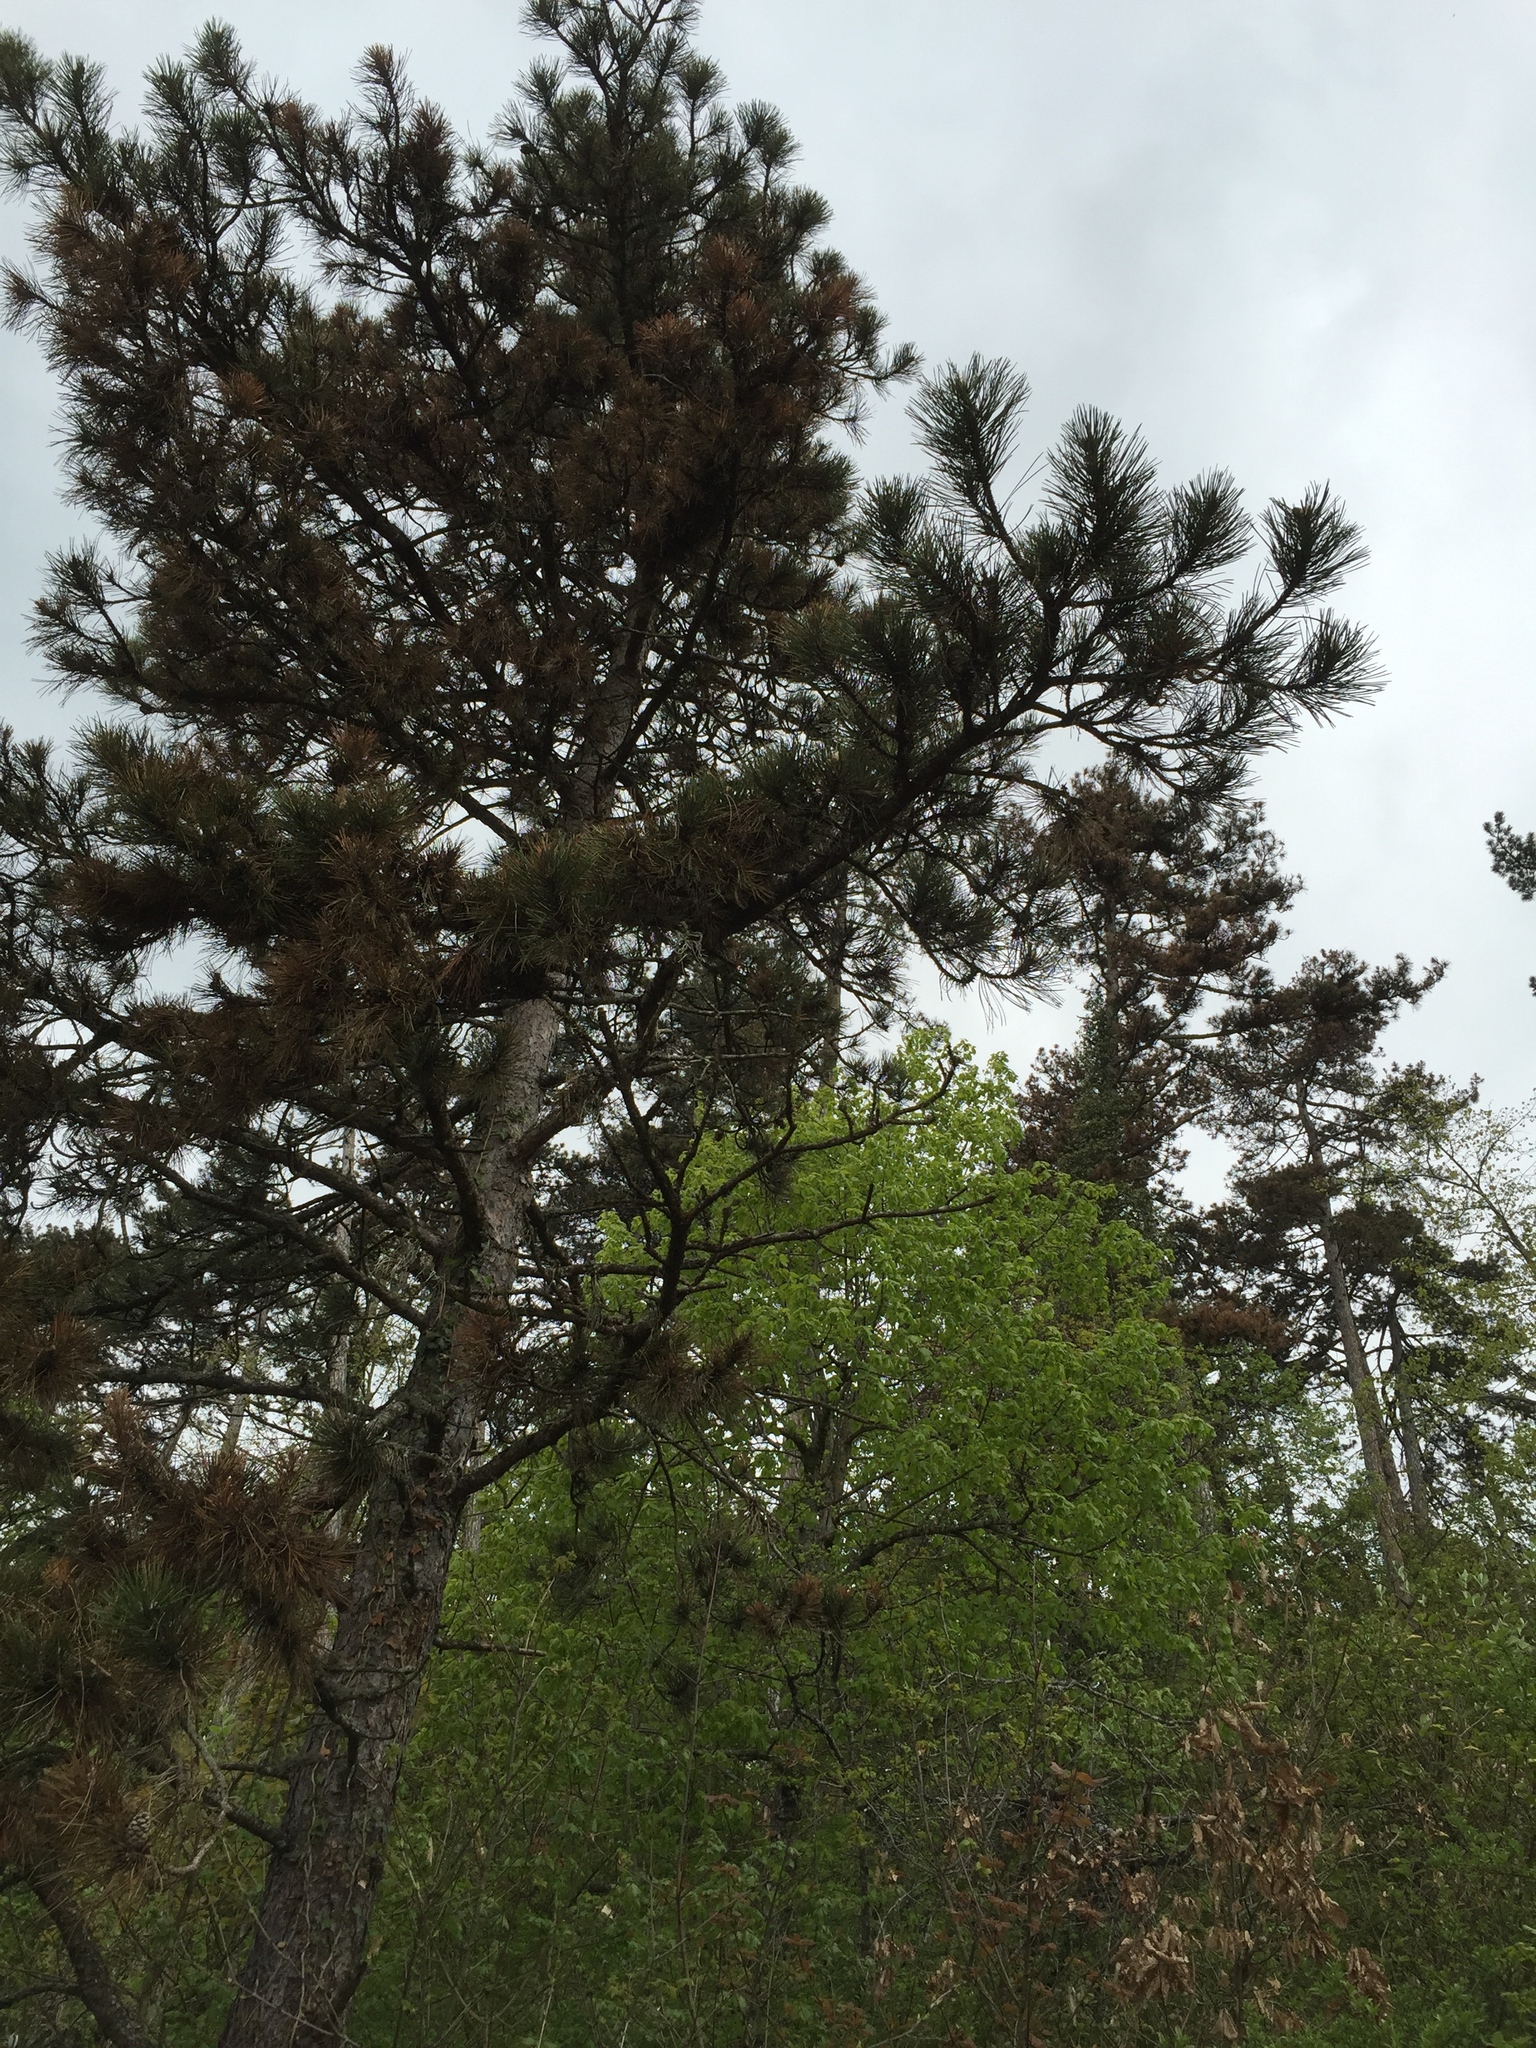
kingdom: Plantae
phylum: Tracheophyta
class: Pinopsida
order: Pinales
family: Pinaceae
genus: Pinus
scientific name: Pinus nigra
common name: Austrian pine
